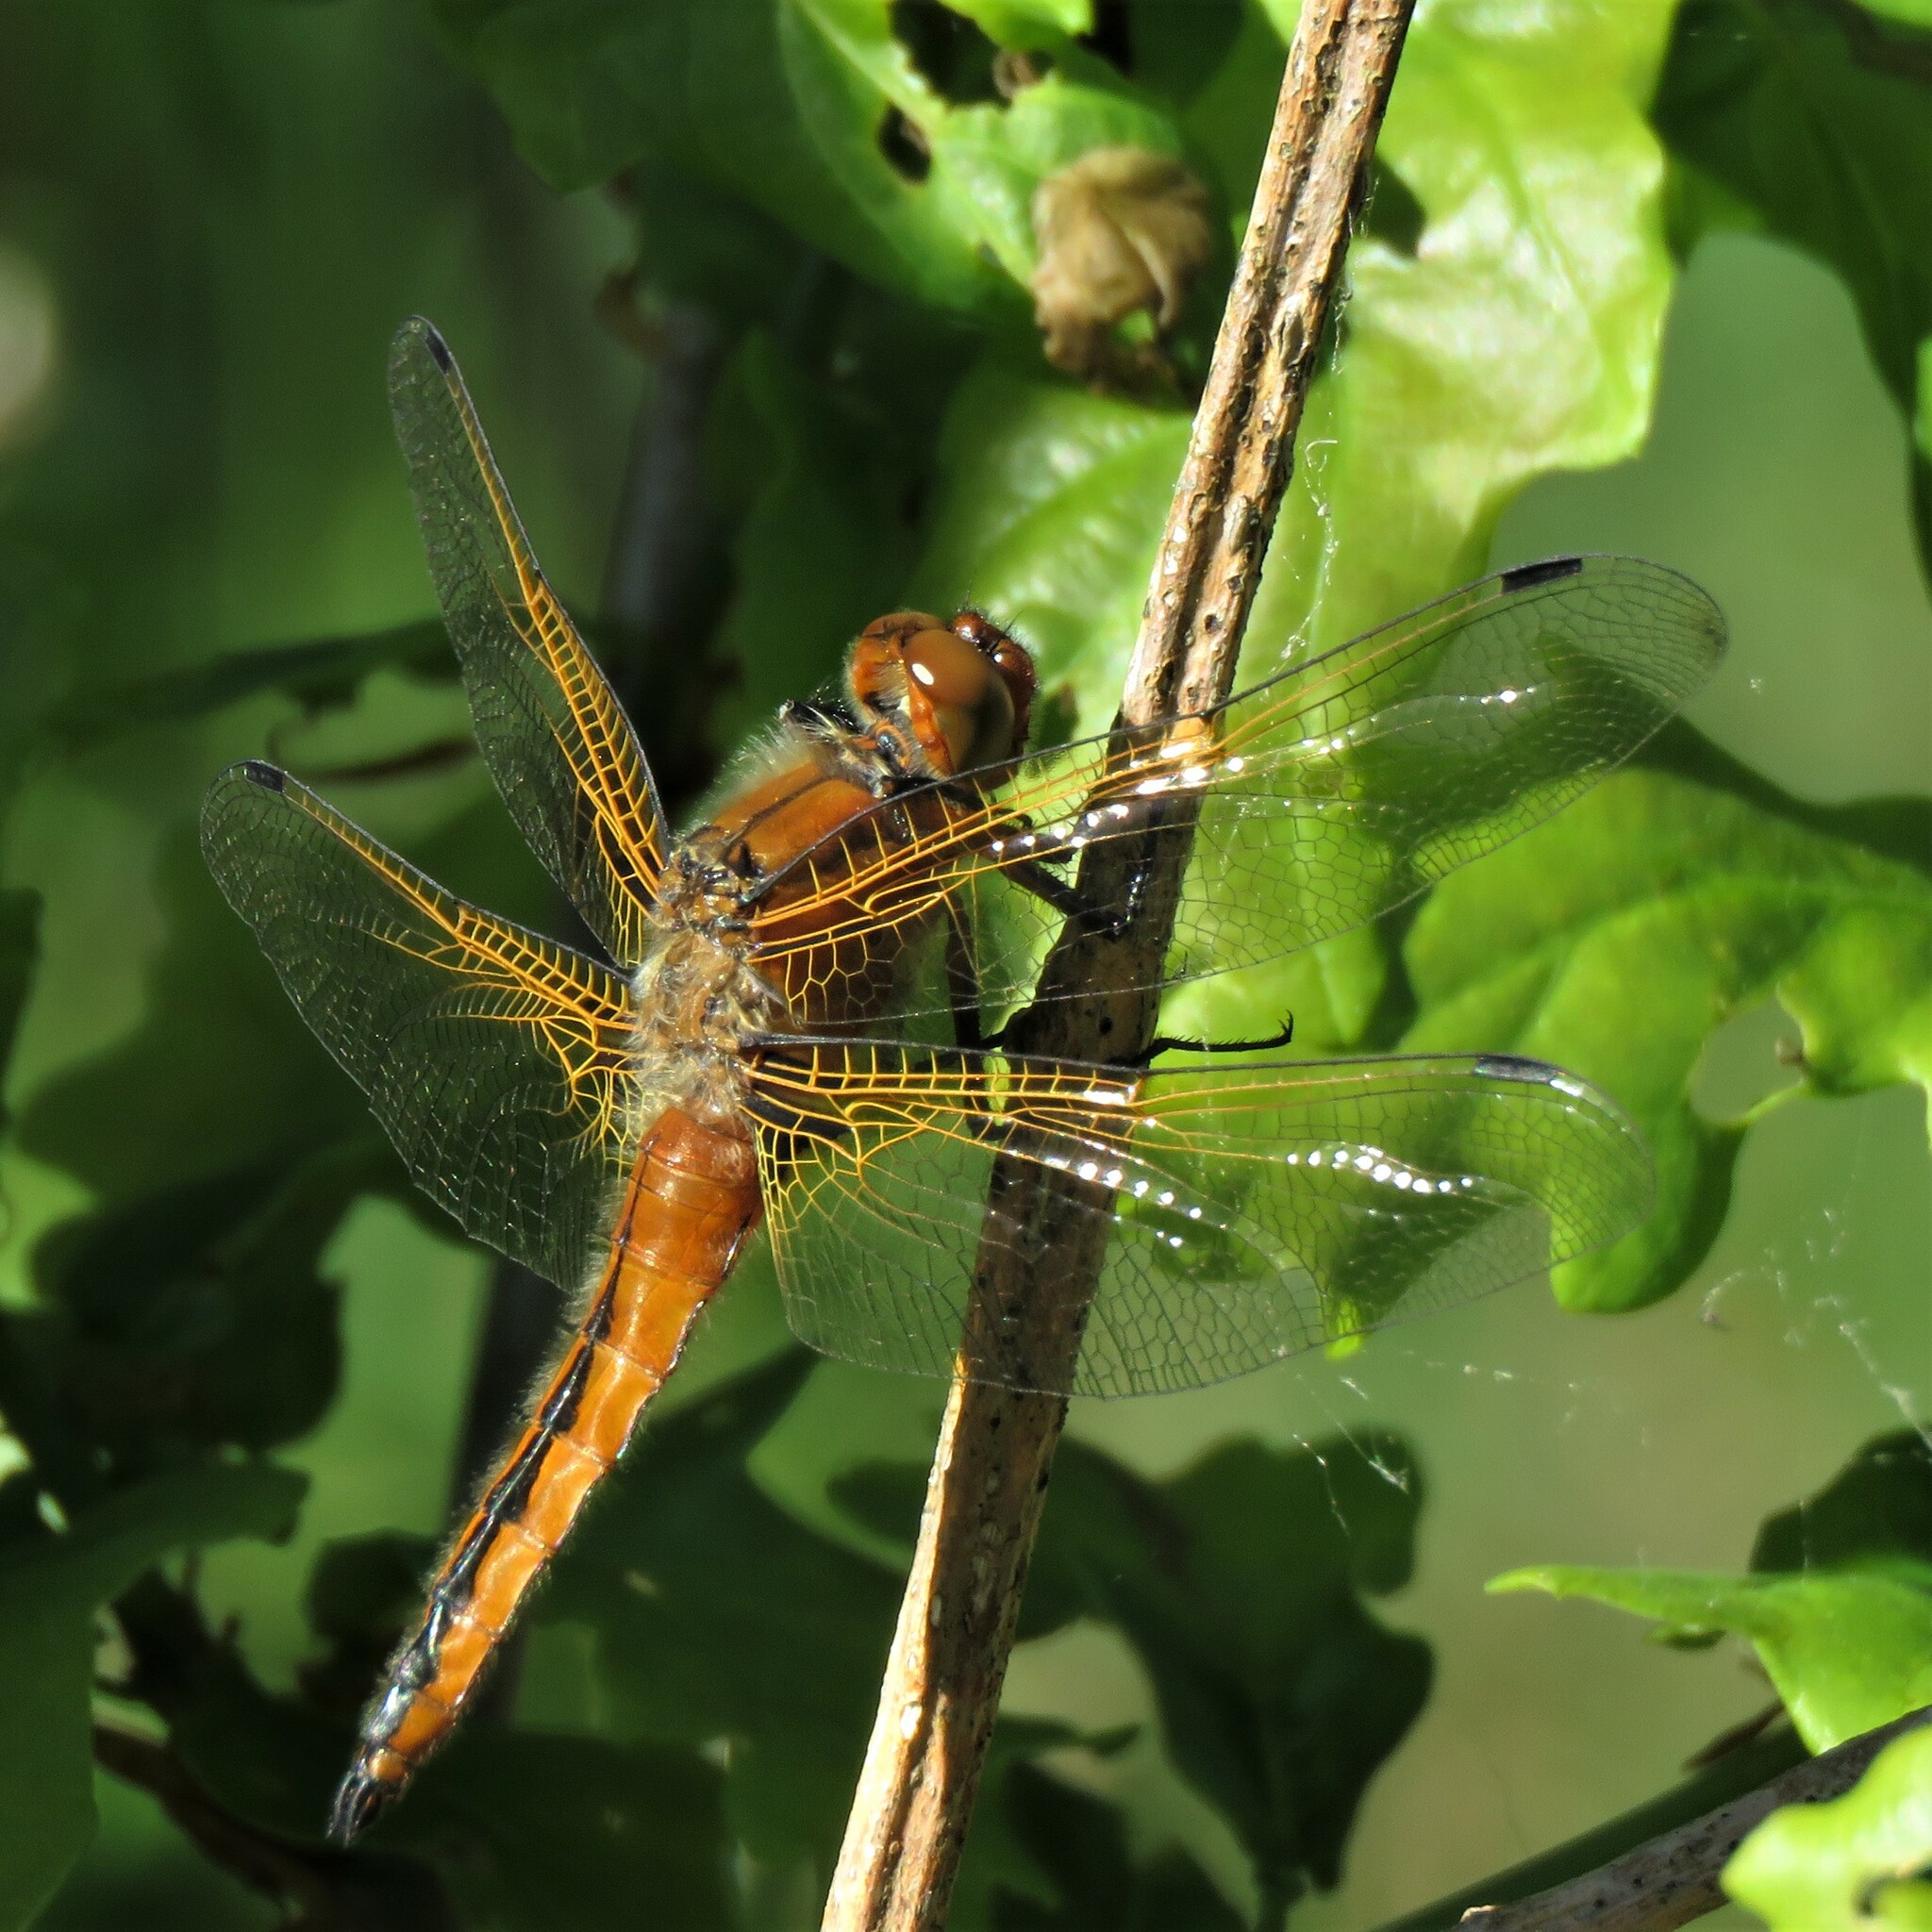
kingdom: Animalia
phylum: Arthropoda
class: Insecta
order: Odonata
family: Libellulidae
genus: Libellula
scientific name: Libellula fulva
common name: Blue chaser
